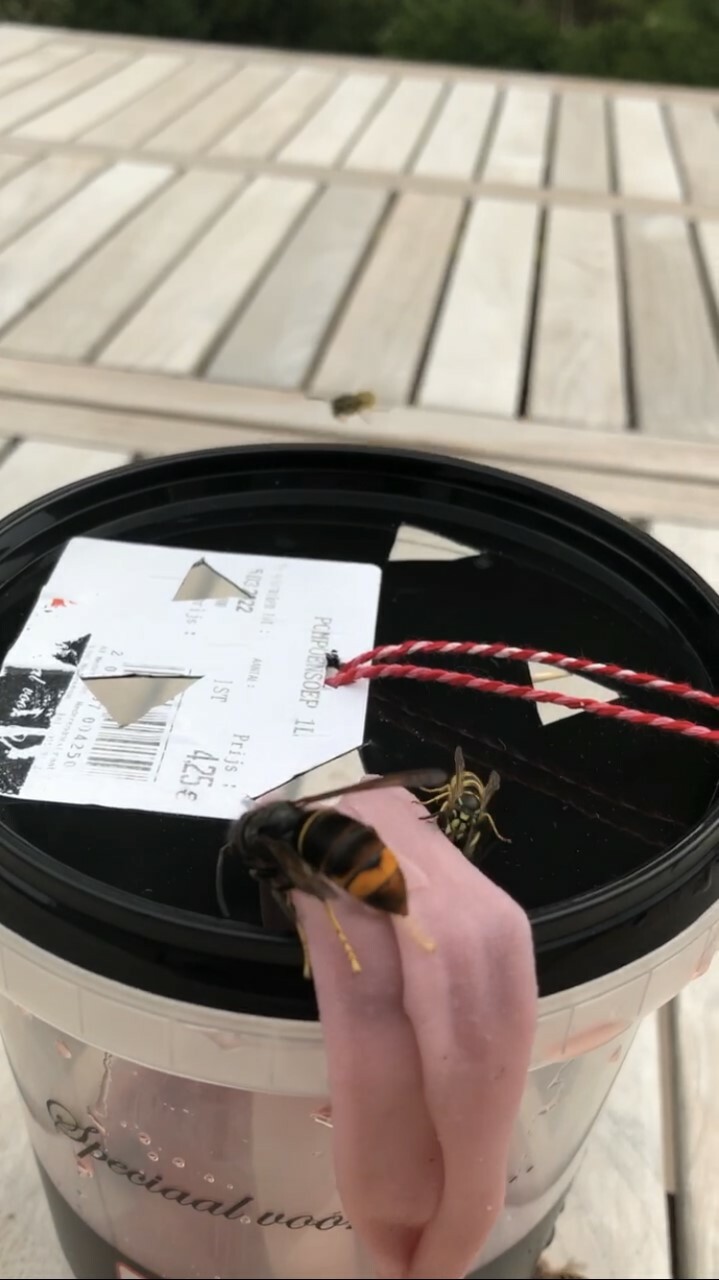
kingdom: Animalia
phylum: Arthropoda
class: Insecta
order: Hymenoptera
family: Vespidae
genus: Vespa
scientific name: Vespa velutina
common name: Asian hornet
